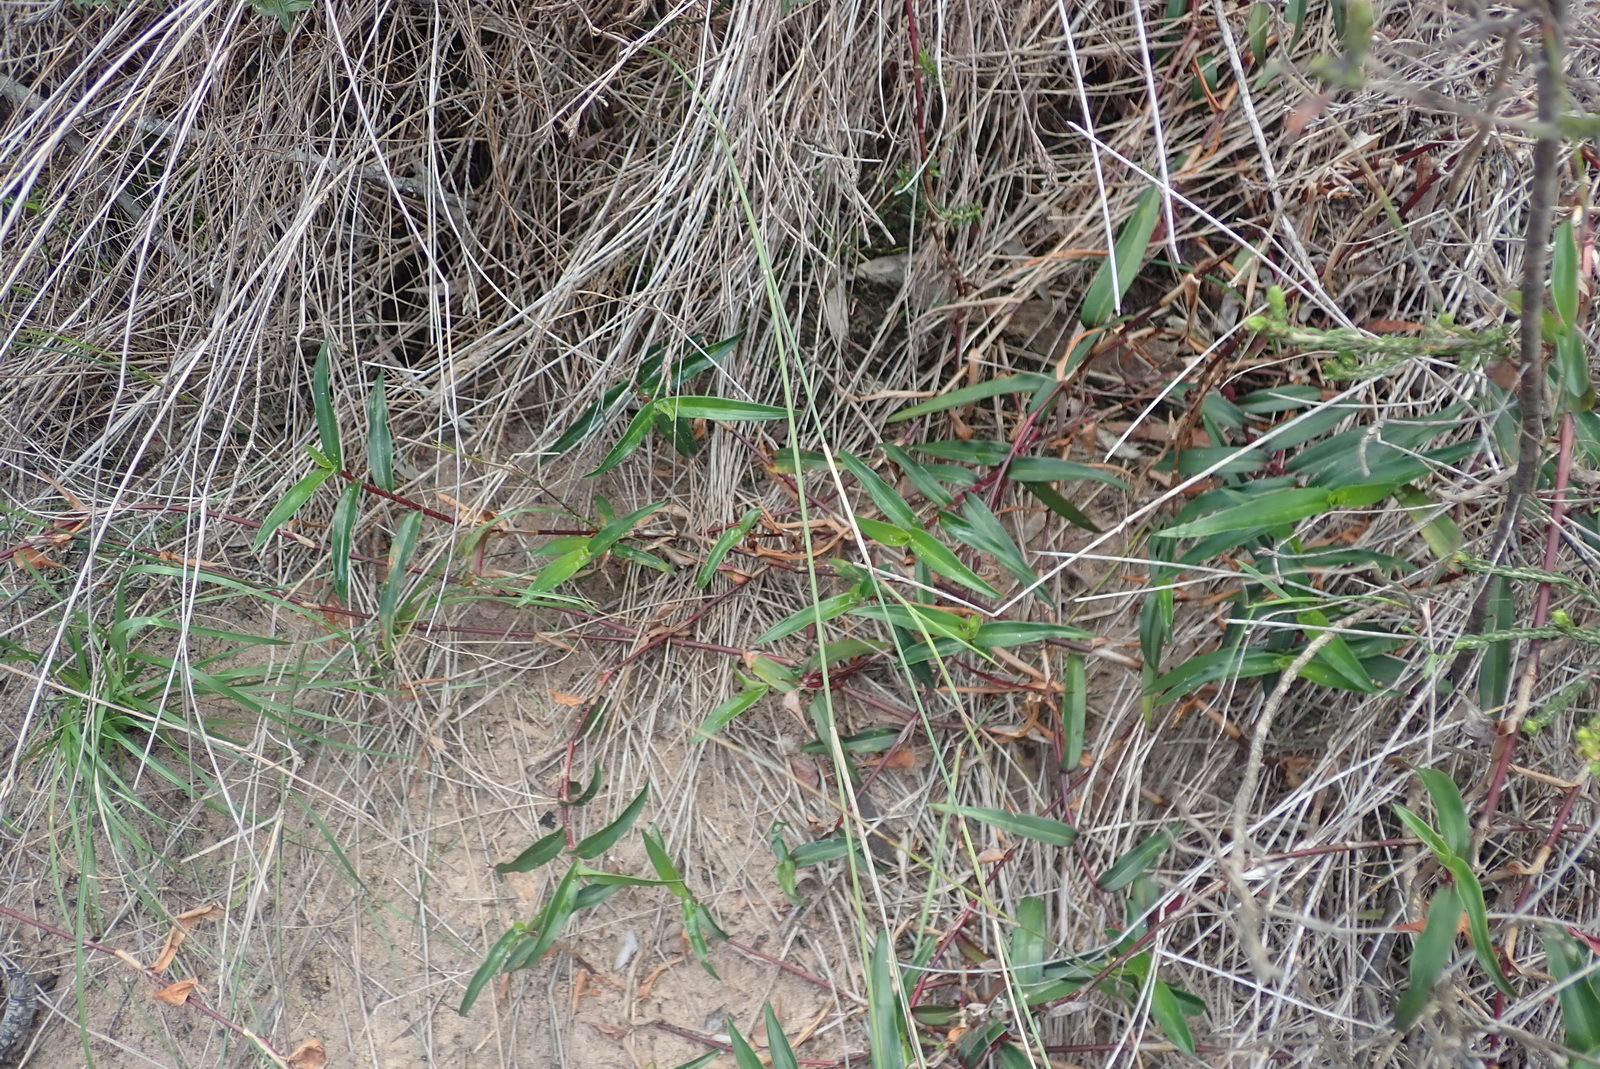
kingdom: Plantae
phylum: Tracheophyta
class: Liliopsida
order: Commelinales
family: Commelinaceae
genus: Commelina
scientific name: Commelina africana
